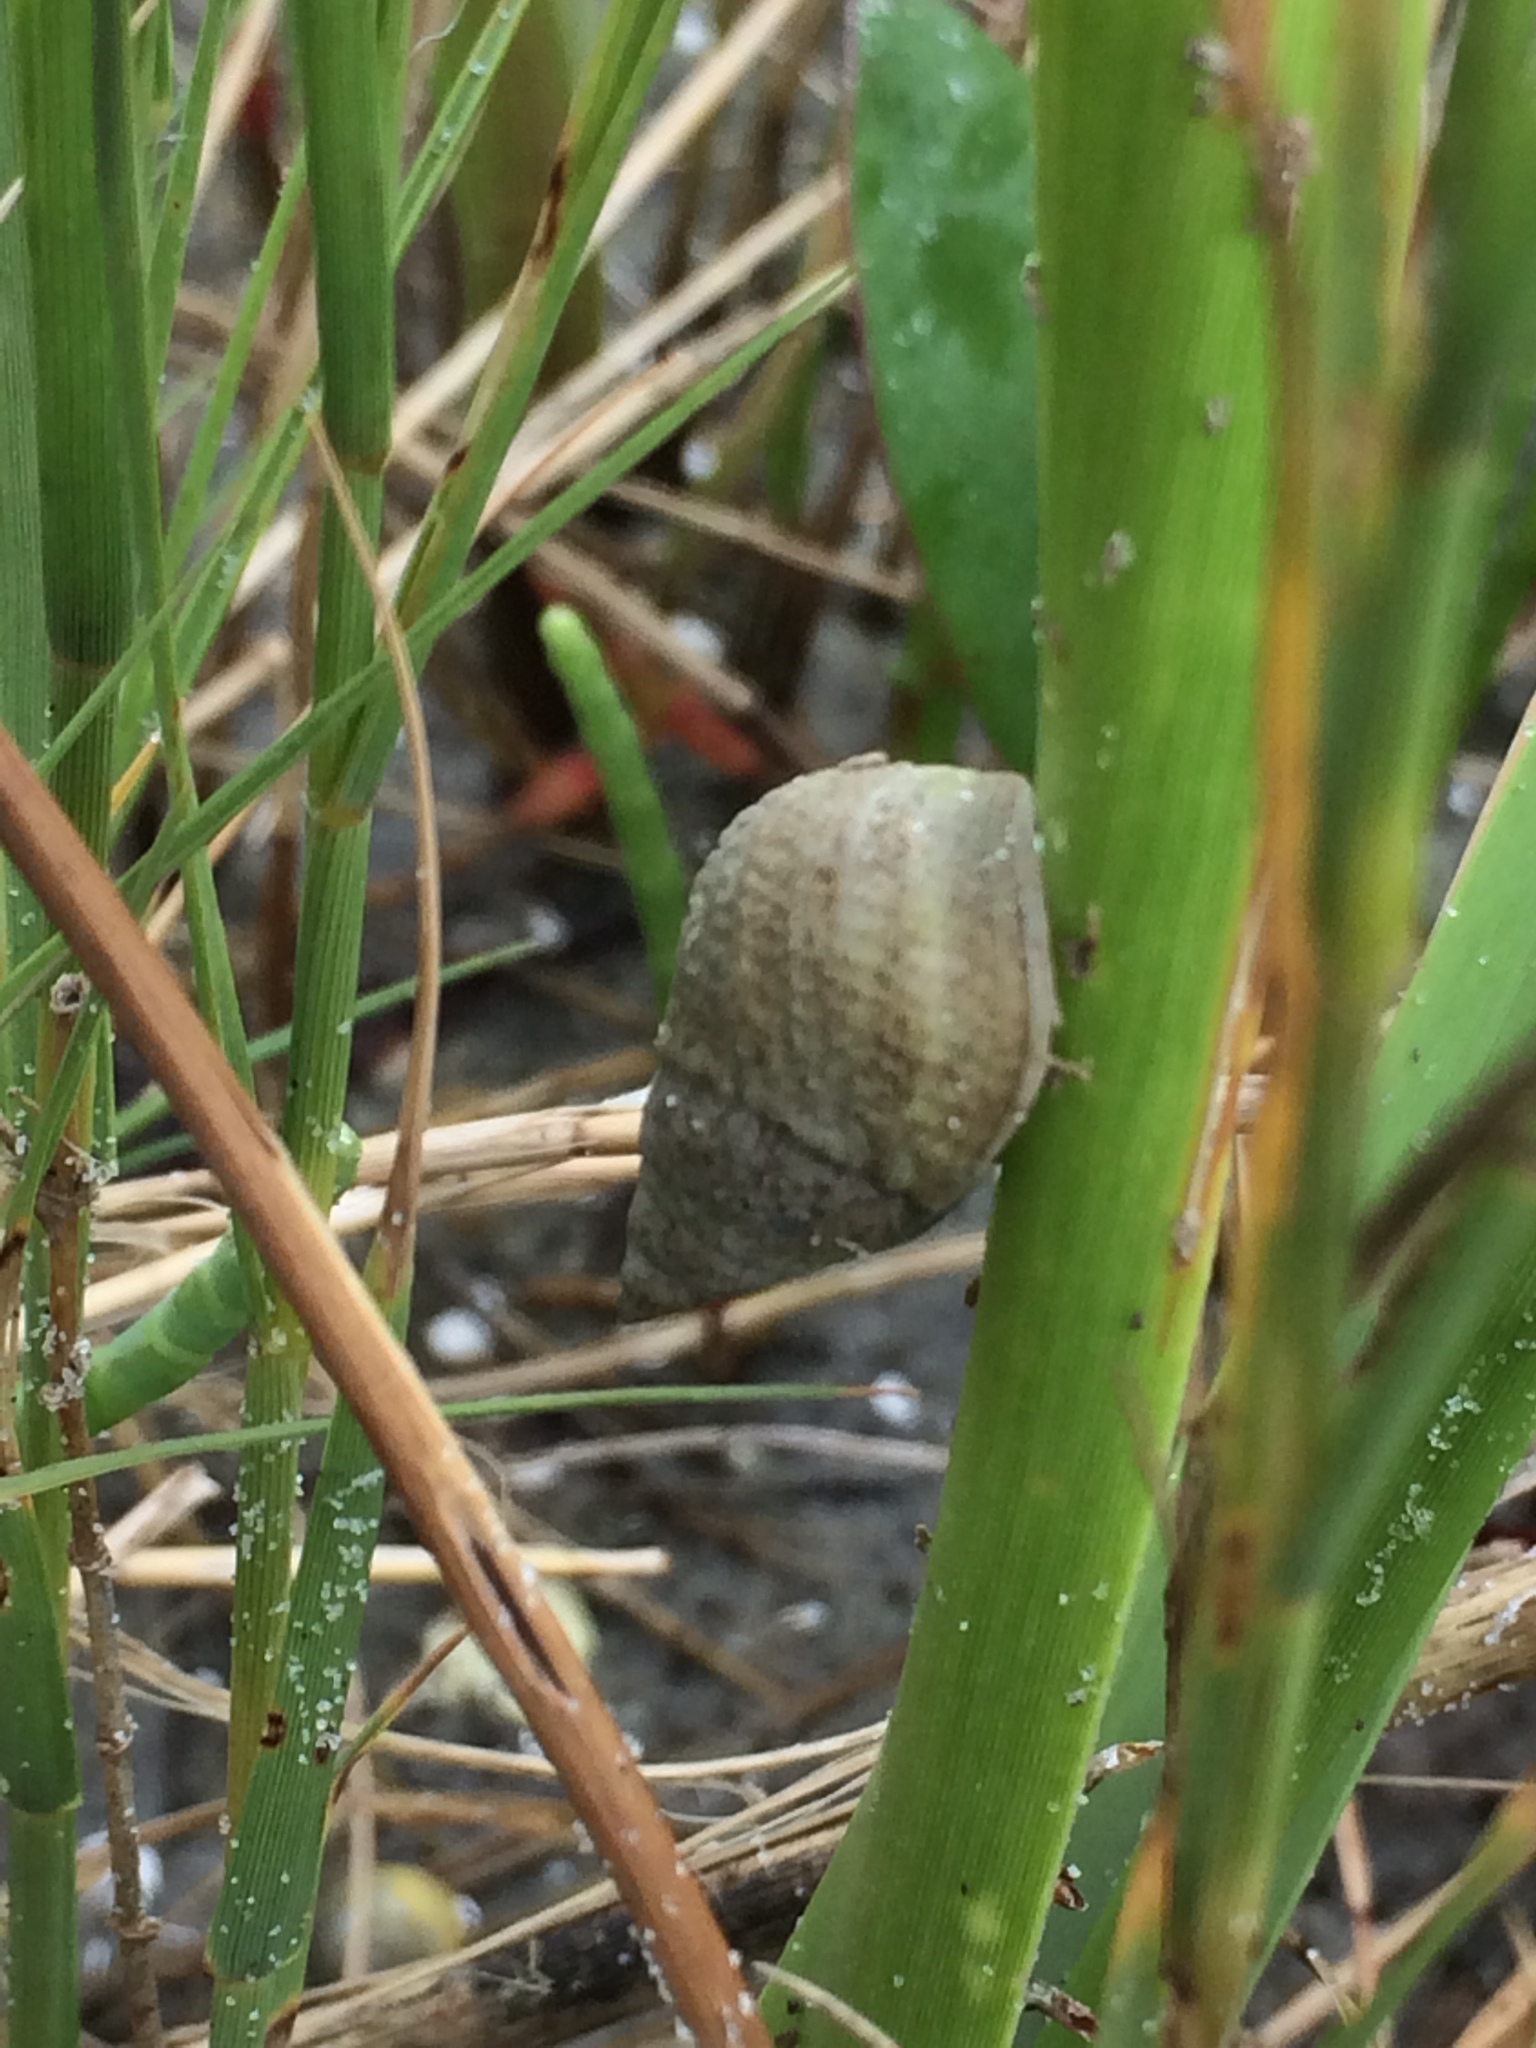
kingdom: Animalia
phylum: Mollusca
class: Gastropoda
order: Littorinimorpha
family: Littorinidae
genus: Littoraria
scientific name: Littoraria irrorata
